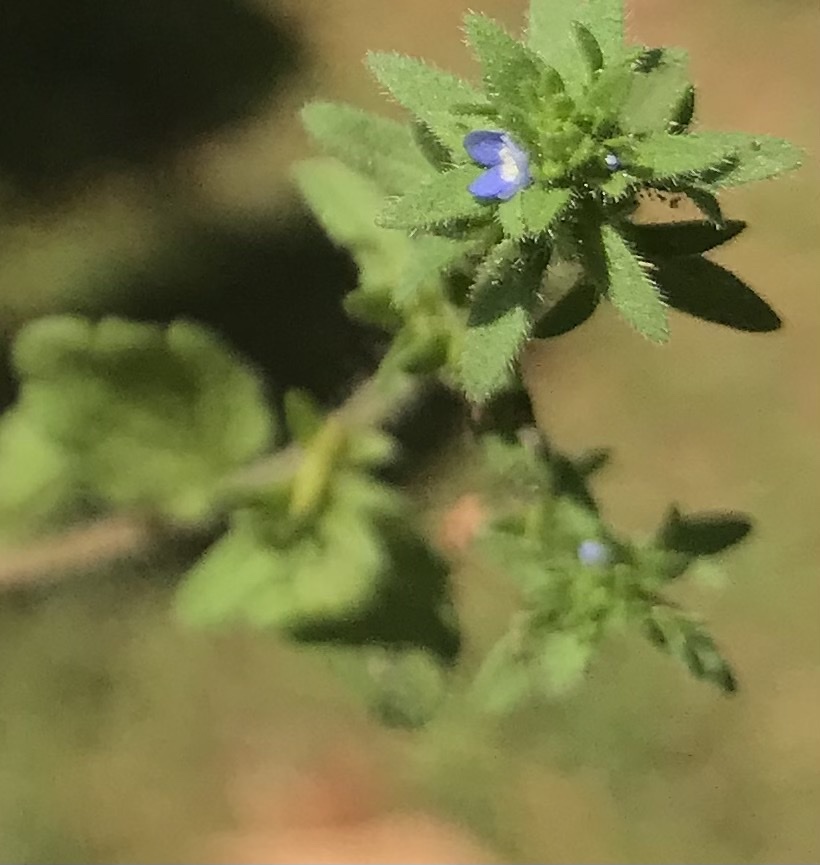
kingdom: Plantae
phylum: Tracheophyta
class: Magnoliopsida
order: Lamiales
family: Plantaginaceae
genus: Veronica
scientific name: Veronica arvensis
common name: Corn speedwell
